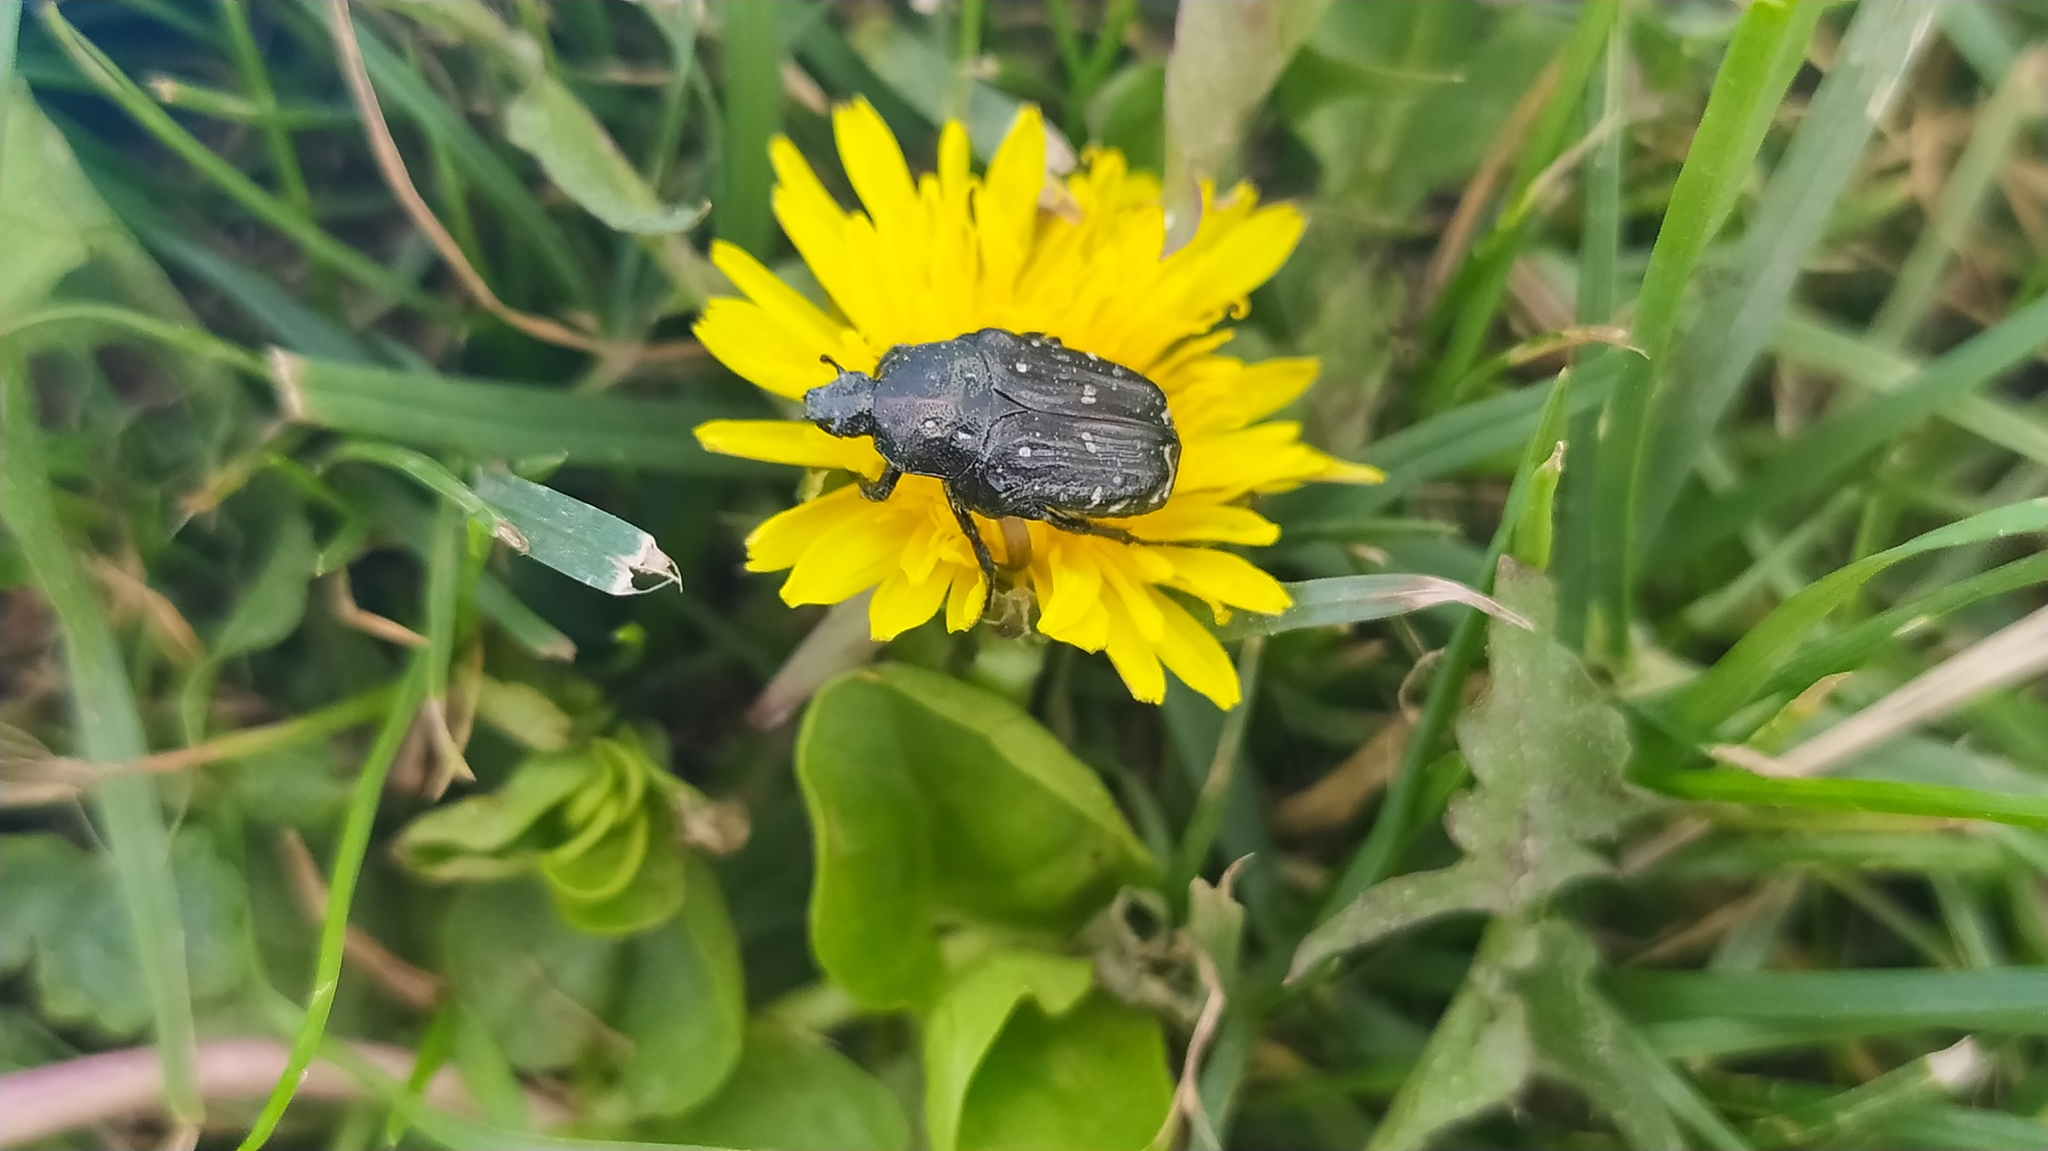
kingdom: Animalia
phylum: Arthropoda
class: Insecta
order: Coleoptera
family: Scarabaeidae
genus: Oxythyrea
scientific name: Oxythyrea funesta
